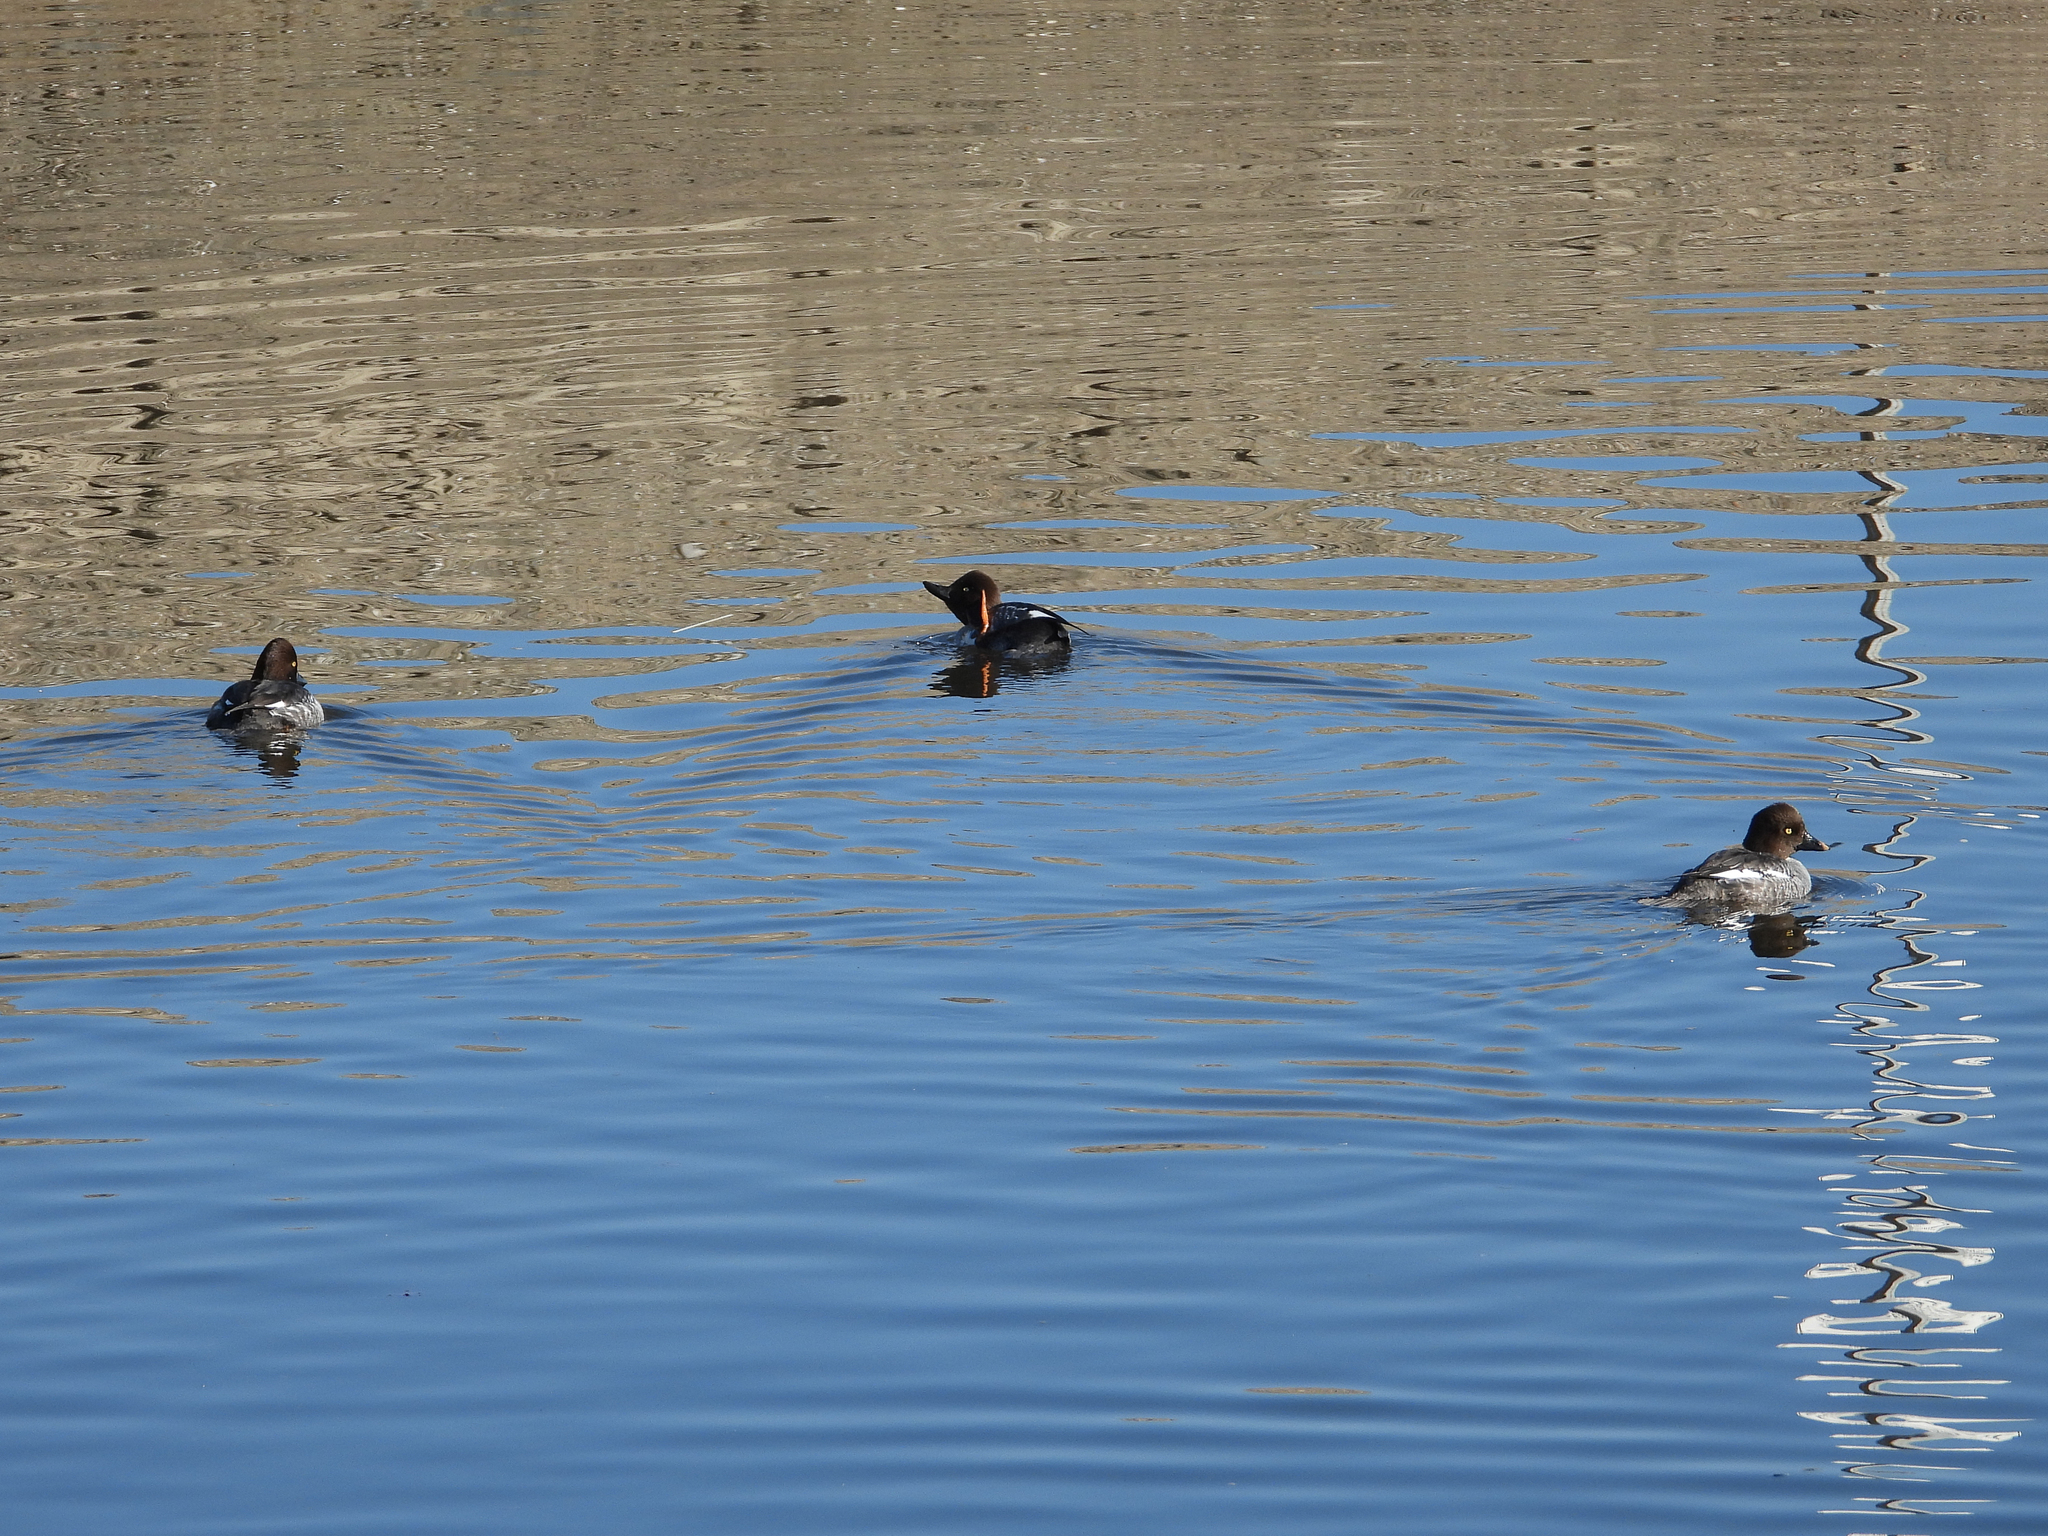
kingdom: Animalia
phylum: Chordata
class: Aves
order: Anseriformes
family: Anatidae
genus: Bucephala
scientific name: Bucephala clangula
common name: Common goldeneye
